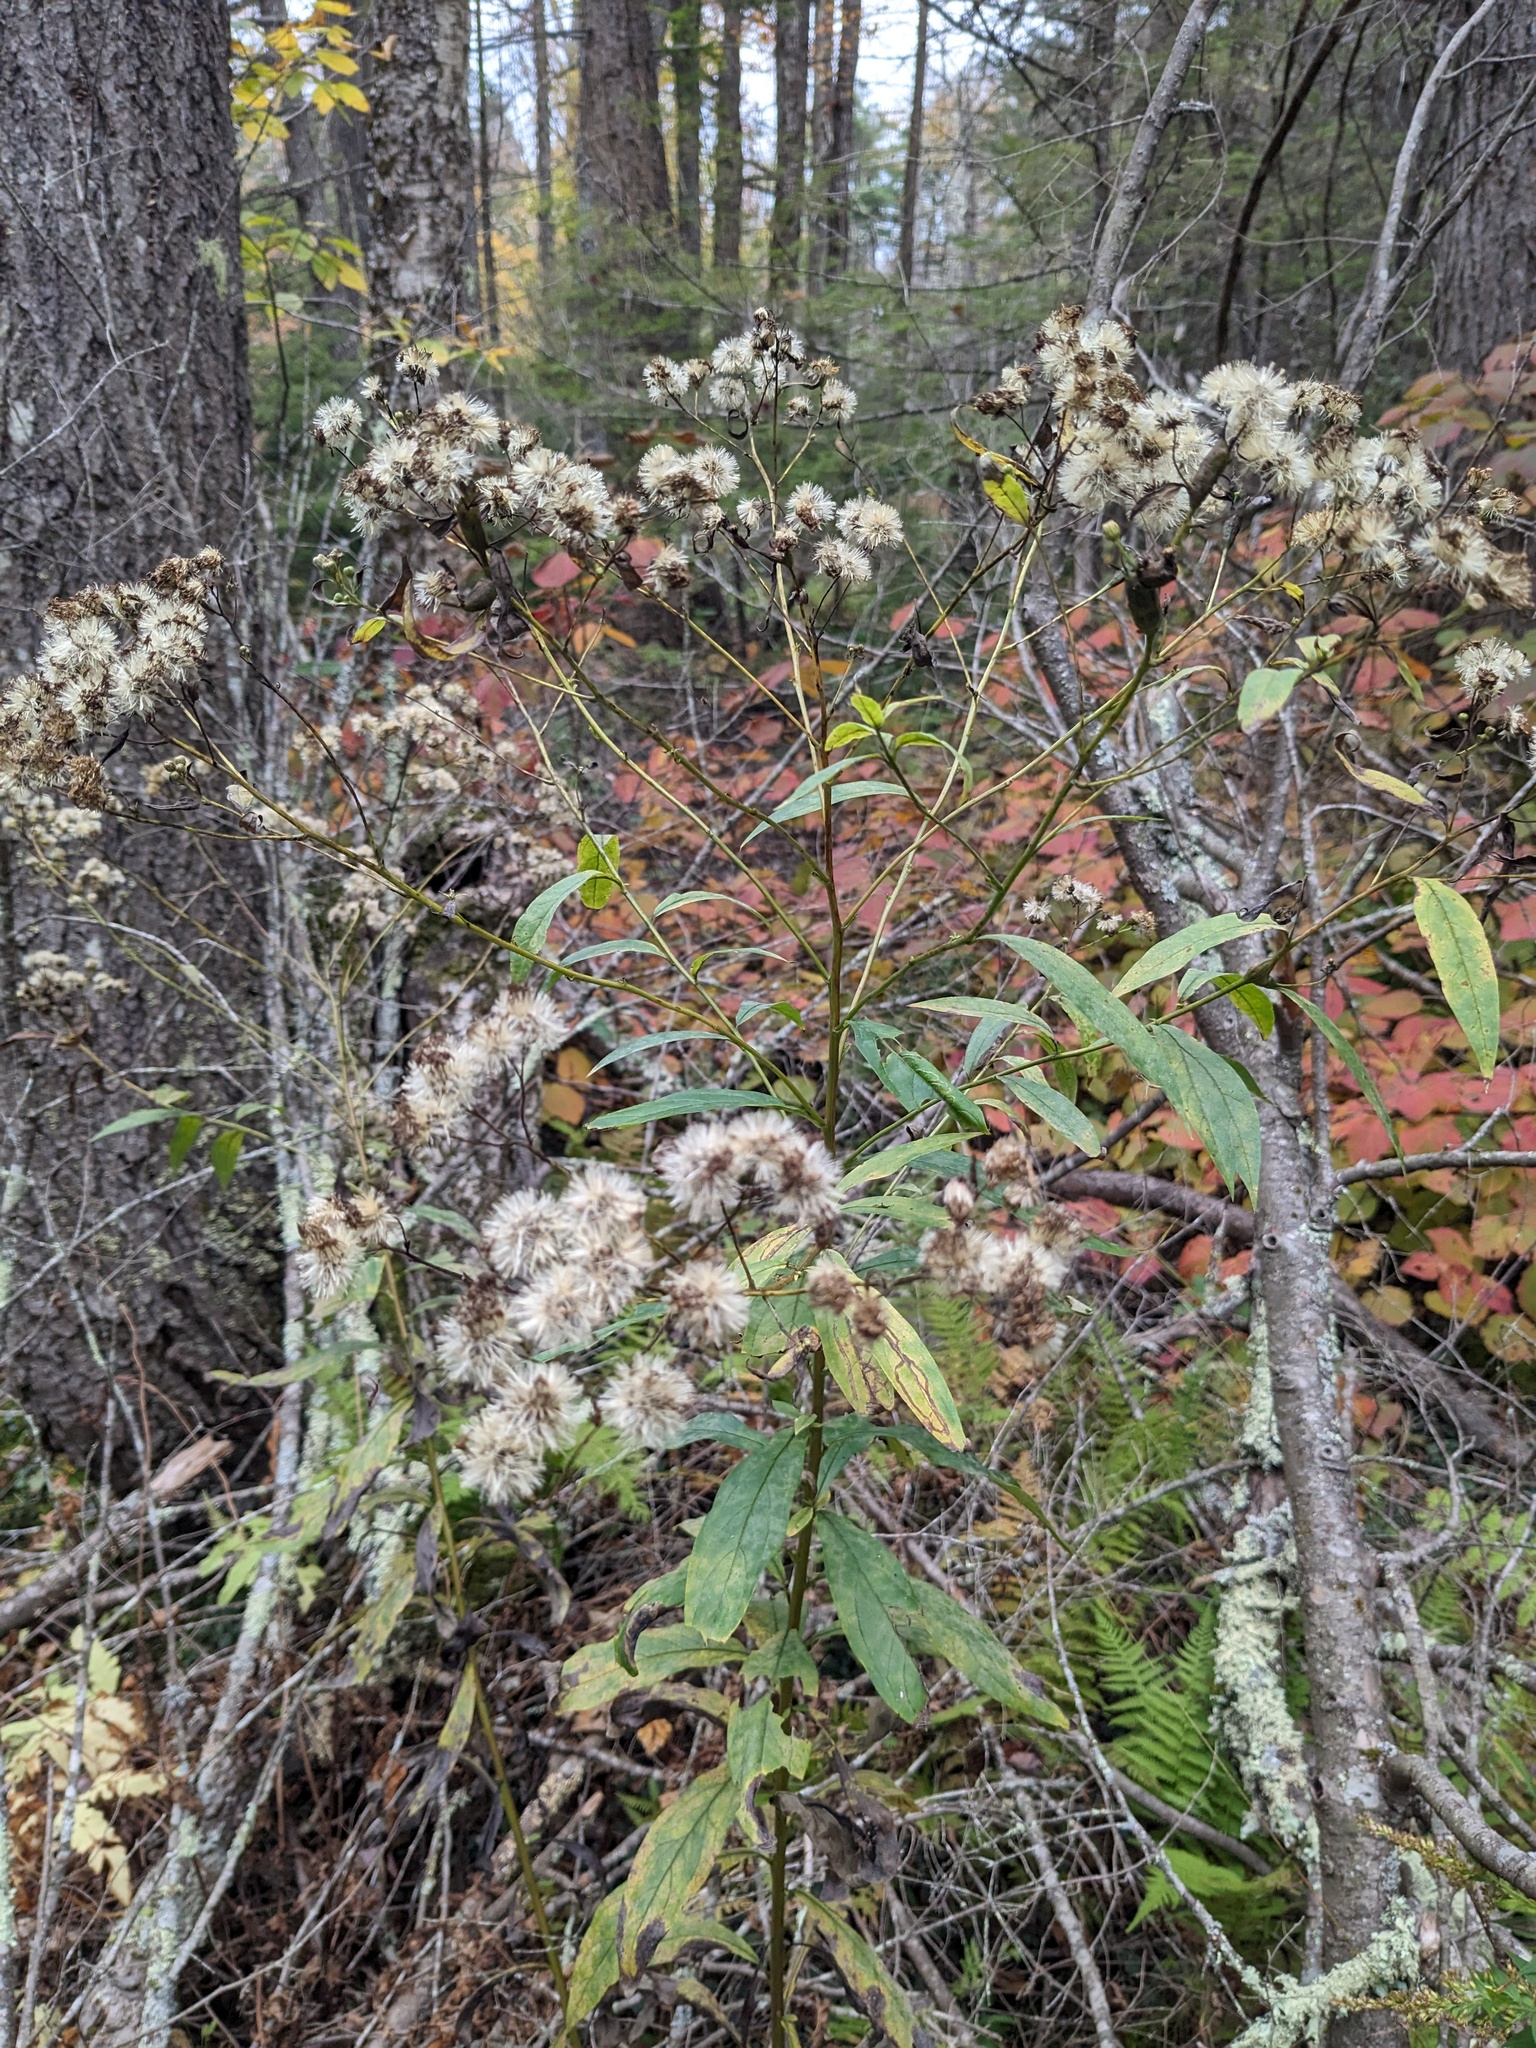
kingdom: Plantae
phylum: Tracheophyta
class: Magnoliopsida
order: Asterales
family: Asteraceae
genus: Doellingeria
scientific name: Doellingeria umbellata
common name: Flat-top white aster
